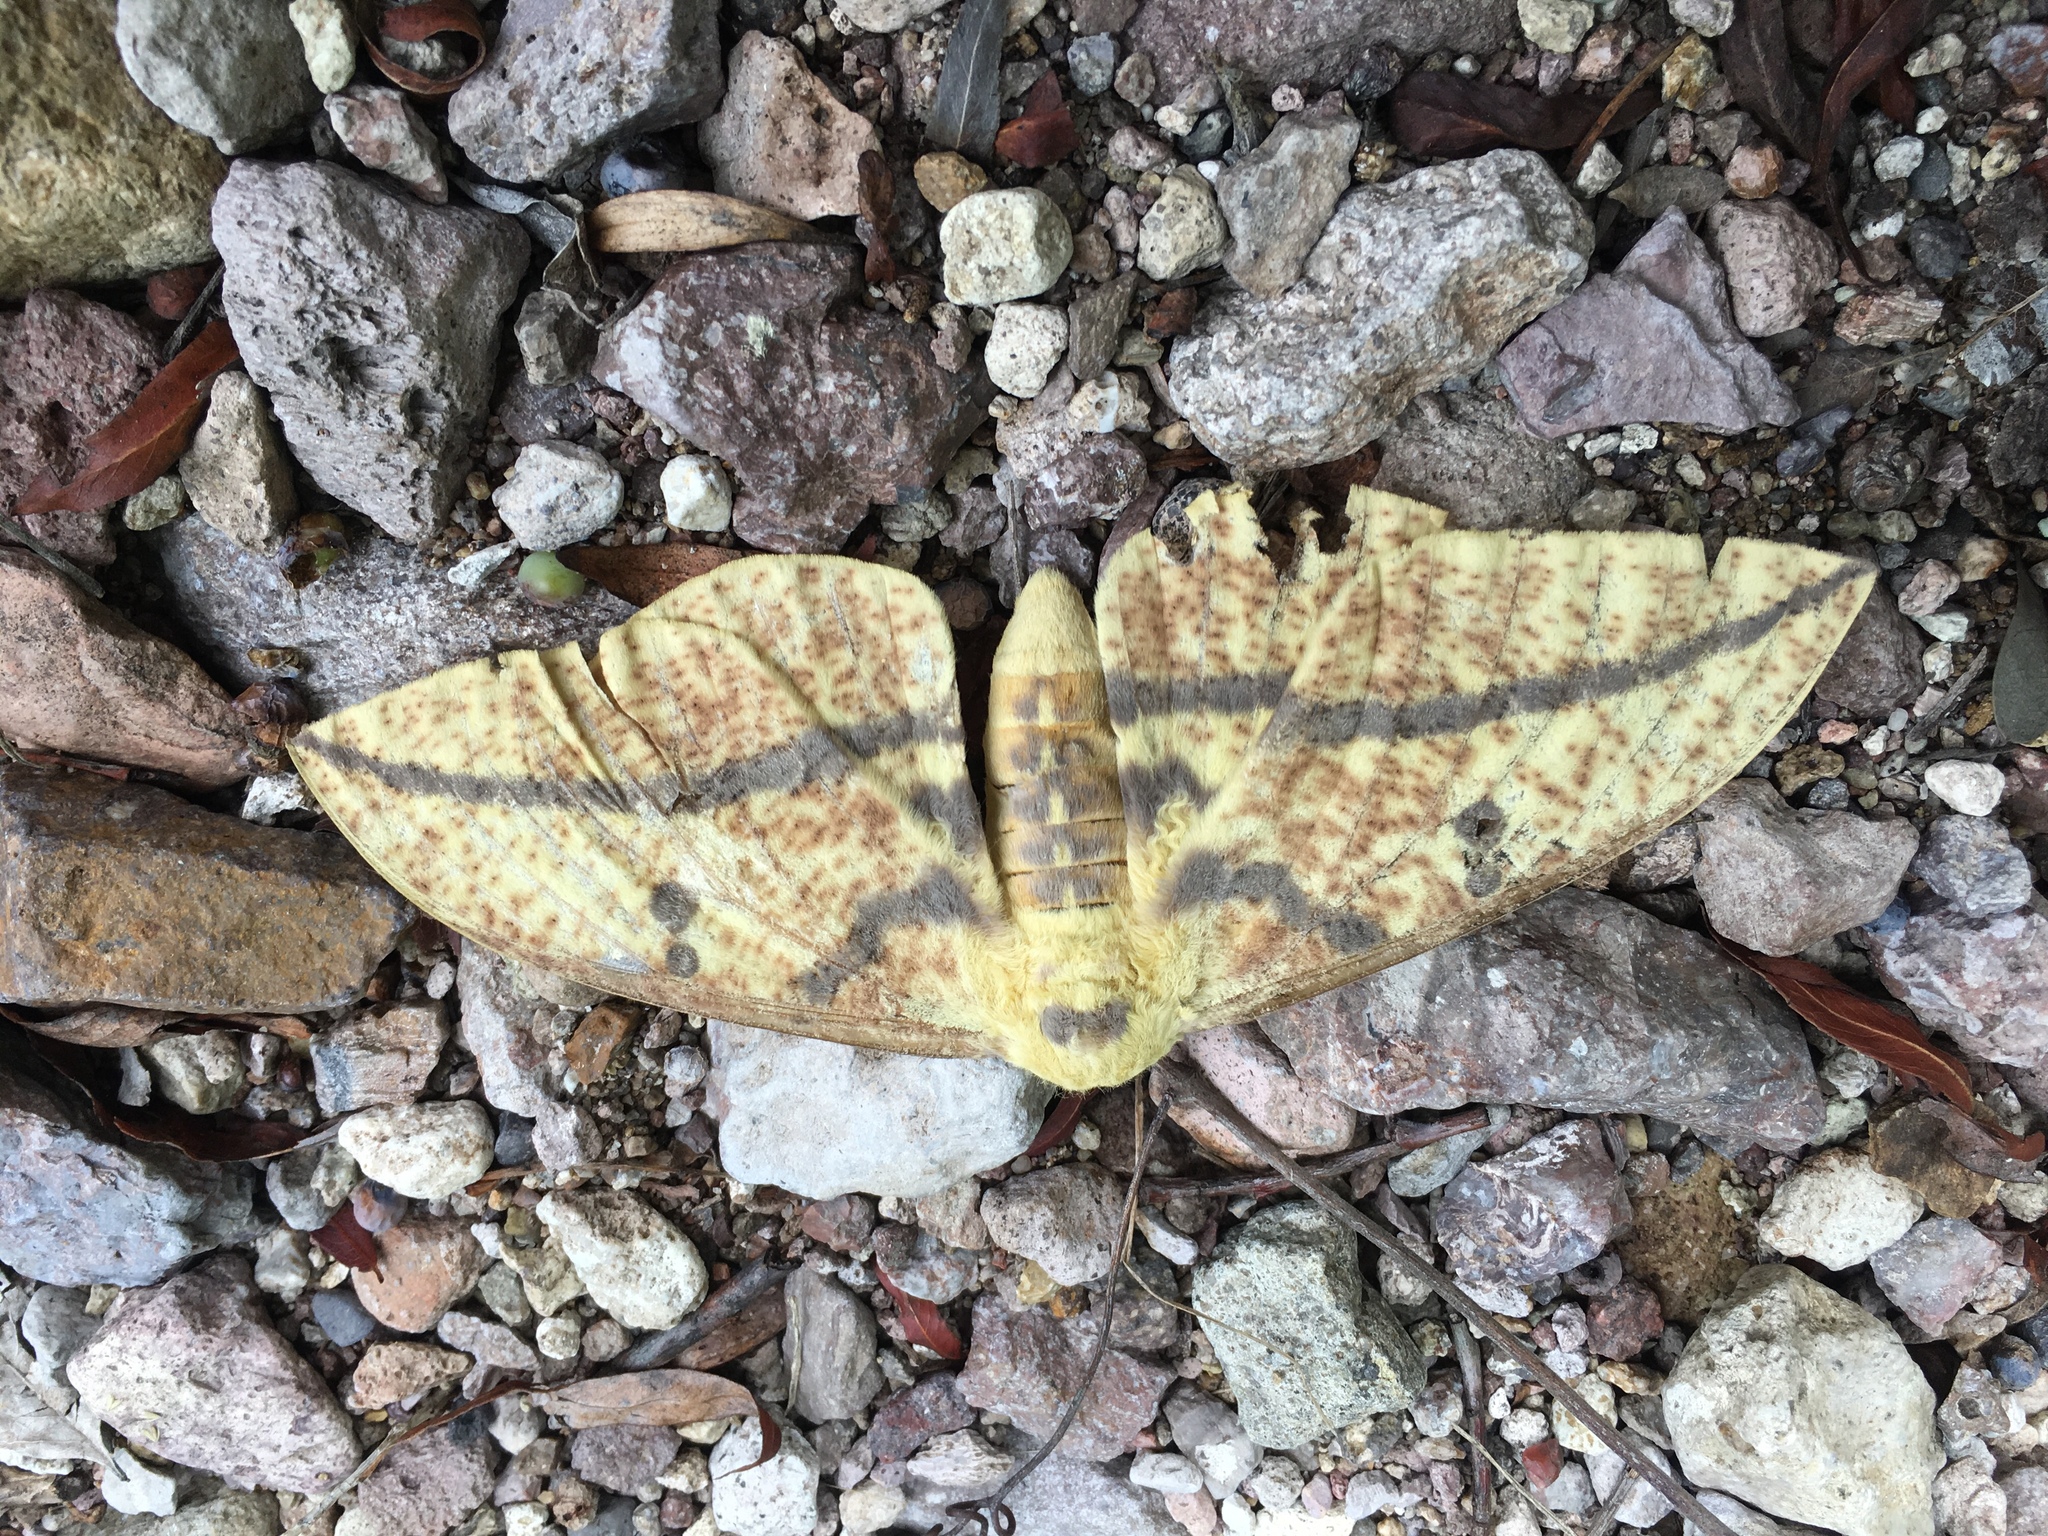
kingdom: Animalia
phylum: Arthropoda
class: Insecta
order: Lepidoptera
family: Saturniidae
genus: Eacles
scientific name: Eacles oslari
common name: Oslar's imperial moth
